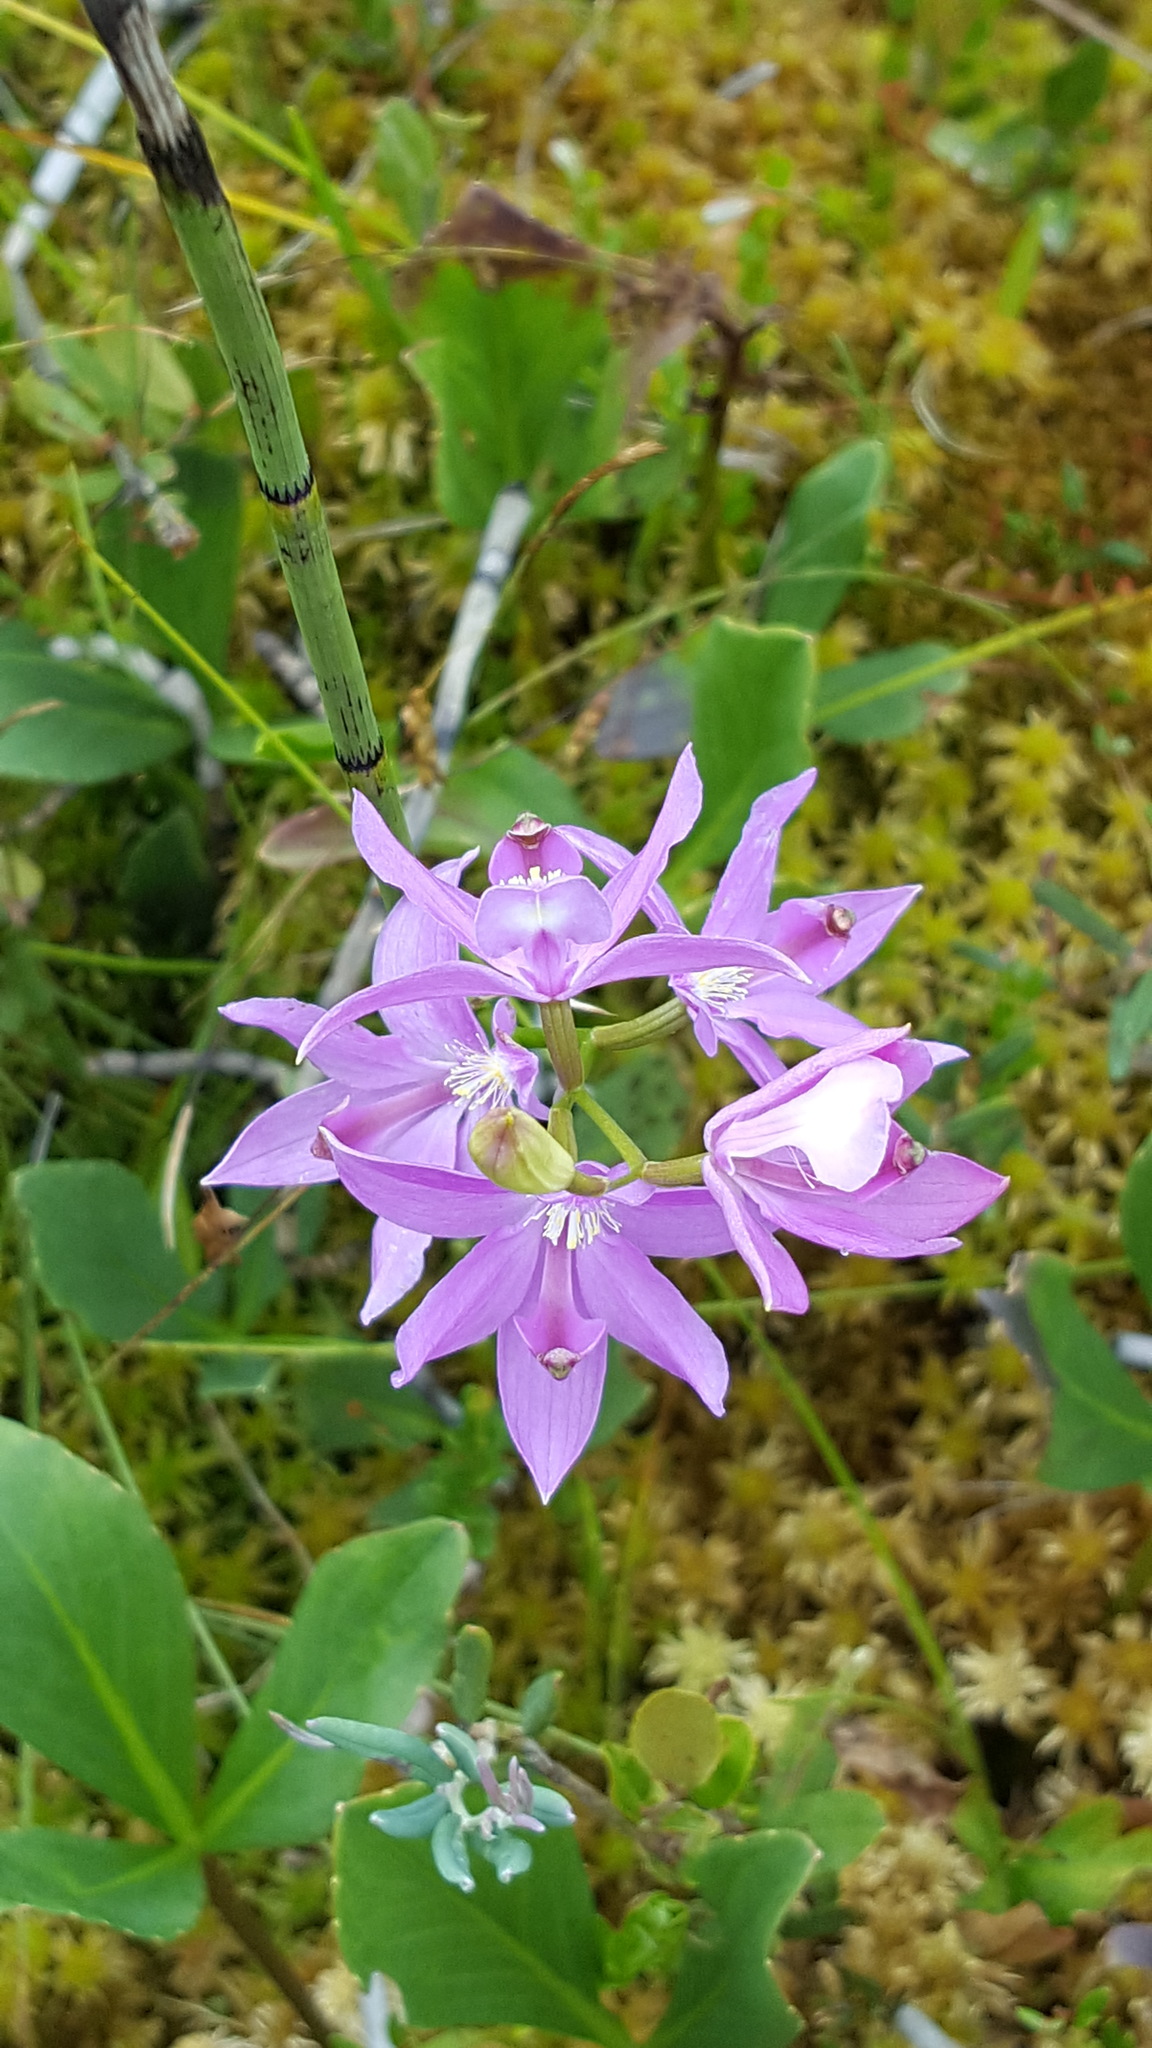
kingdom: Plantae
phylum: Tracheophyta
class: Liliopsida
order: Asparagales
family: Orchidaceae
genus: Calopogon
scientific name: Calopogon tuberosus
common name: Grass-pink
